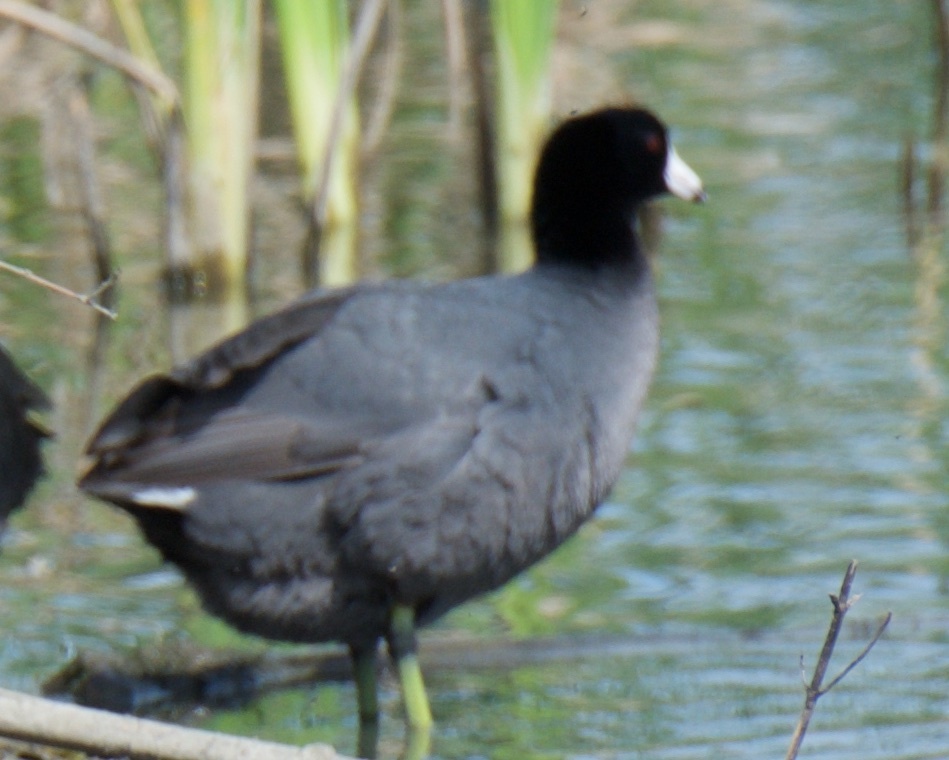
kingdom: Animalia
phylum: Chordata
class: Aves
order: Gruiformes
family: Rallidae
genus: Fulica
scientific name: Fulica americana
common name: American coot
